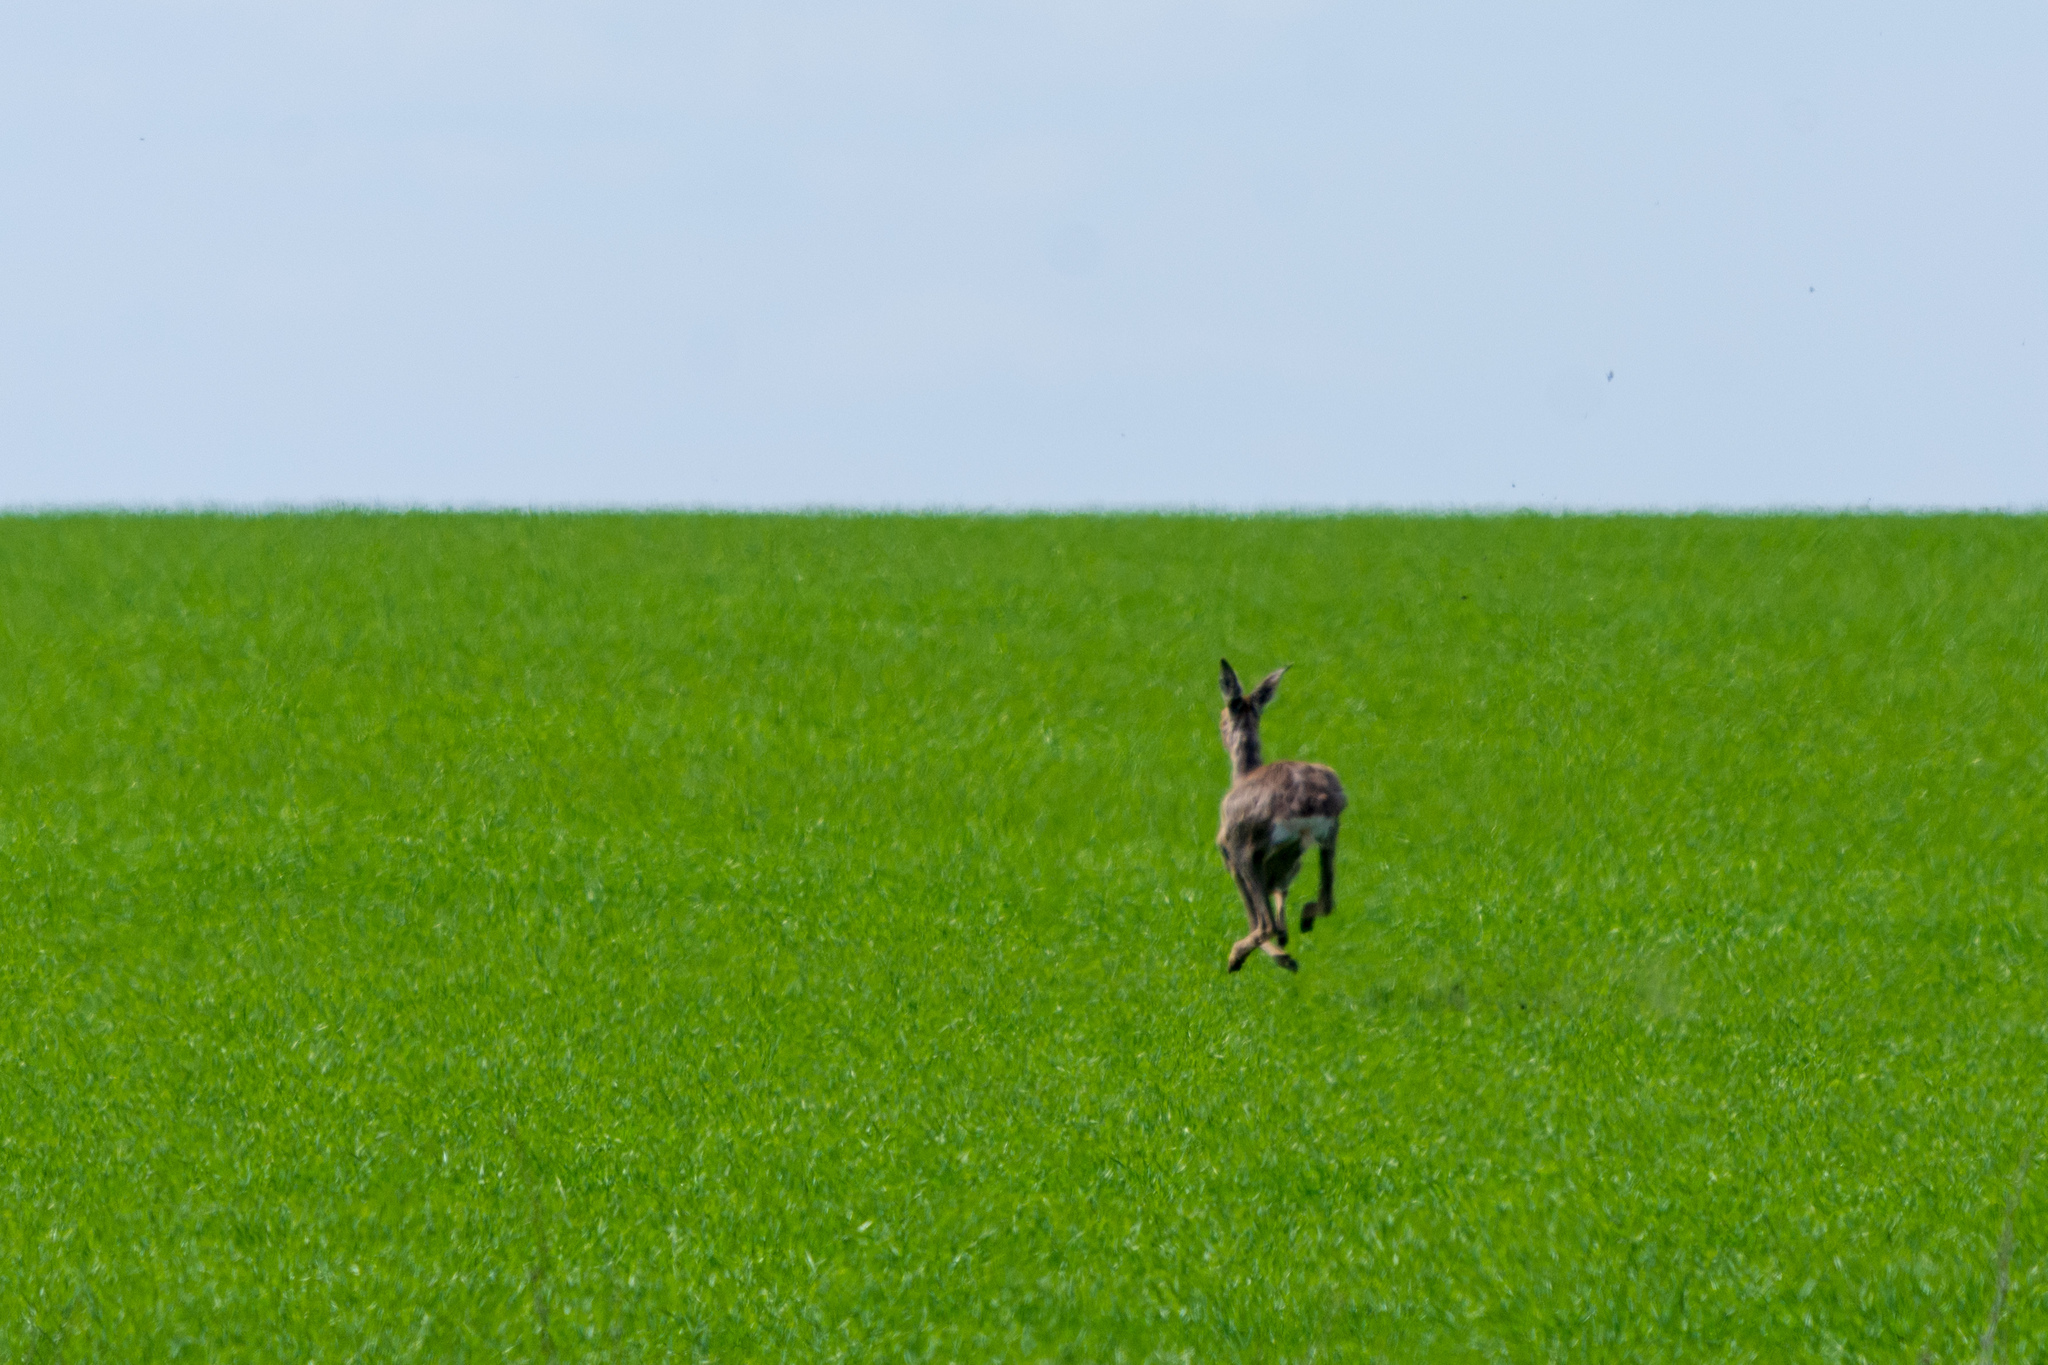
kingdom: Animalia
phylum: Chordata
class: Mammalia
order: Artiodactyla
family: Cervidae
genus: Capreolus
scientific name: Capreolus capreolus
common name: Western roe deer
